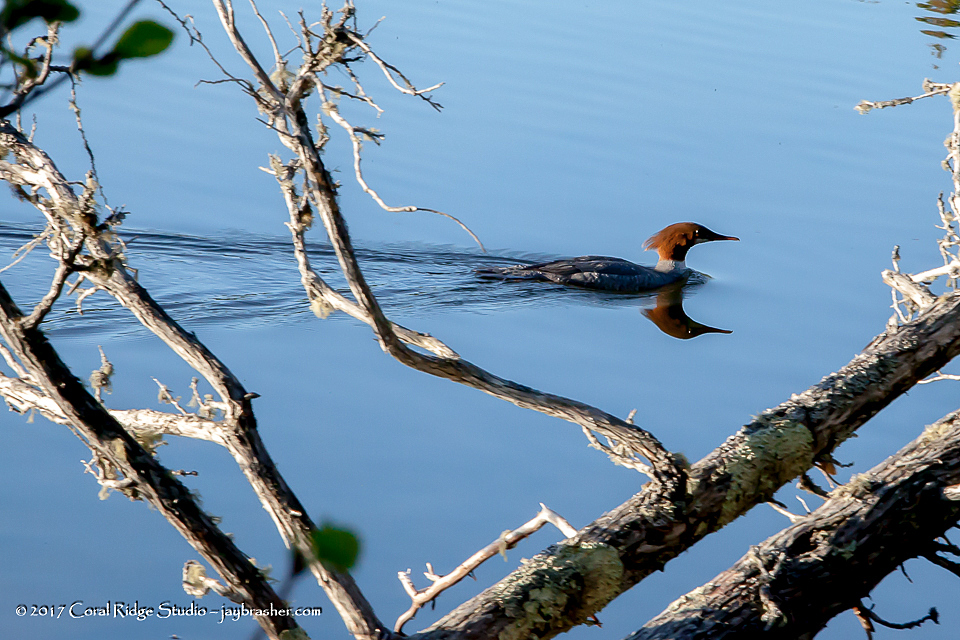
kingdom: Animalia
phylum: Chordata
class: Aves
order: Anseriformes
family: Anatidae
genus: Mergus
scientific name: Mergus merganser
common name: Common merganser
